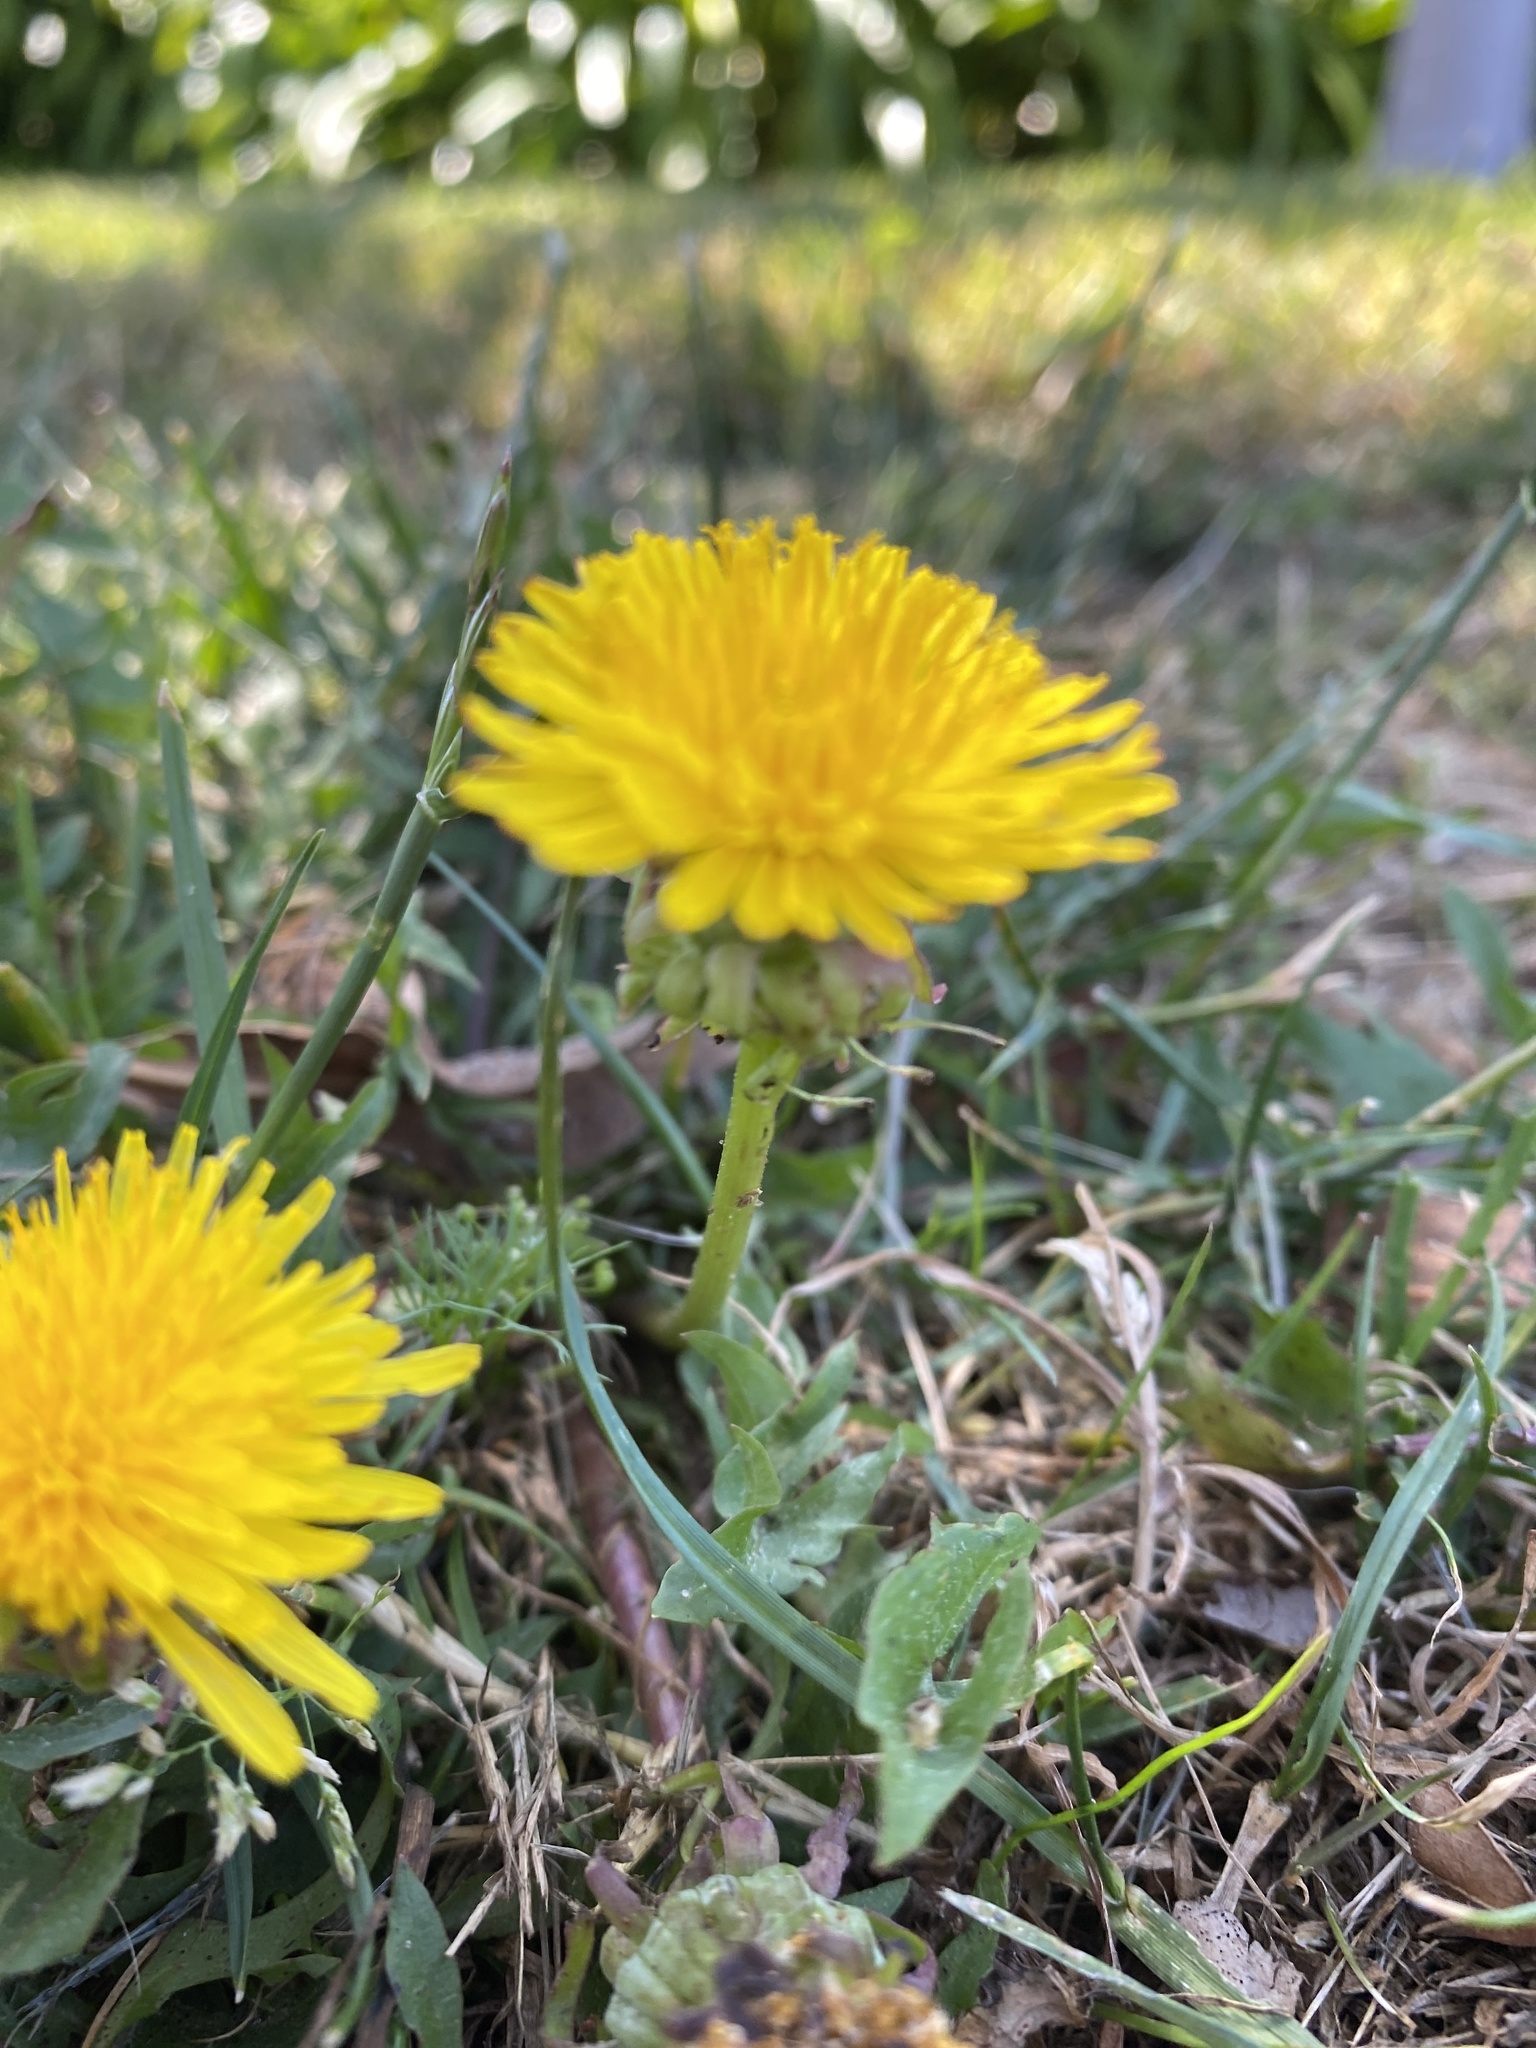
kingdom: Plantae
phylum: Tracheophyta
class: Magnoliopsida
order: Asterales
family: Asteraceae
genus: Taraxacum
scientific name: Taraxacum officinale
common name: Common dandelion
